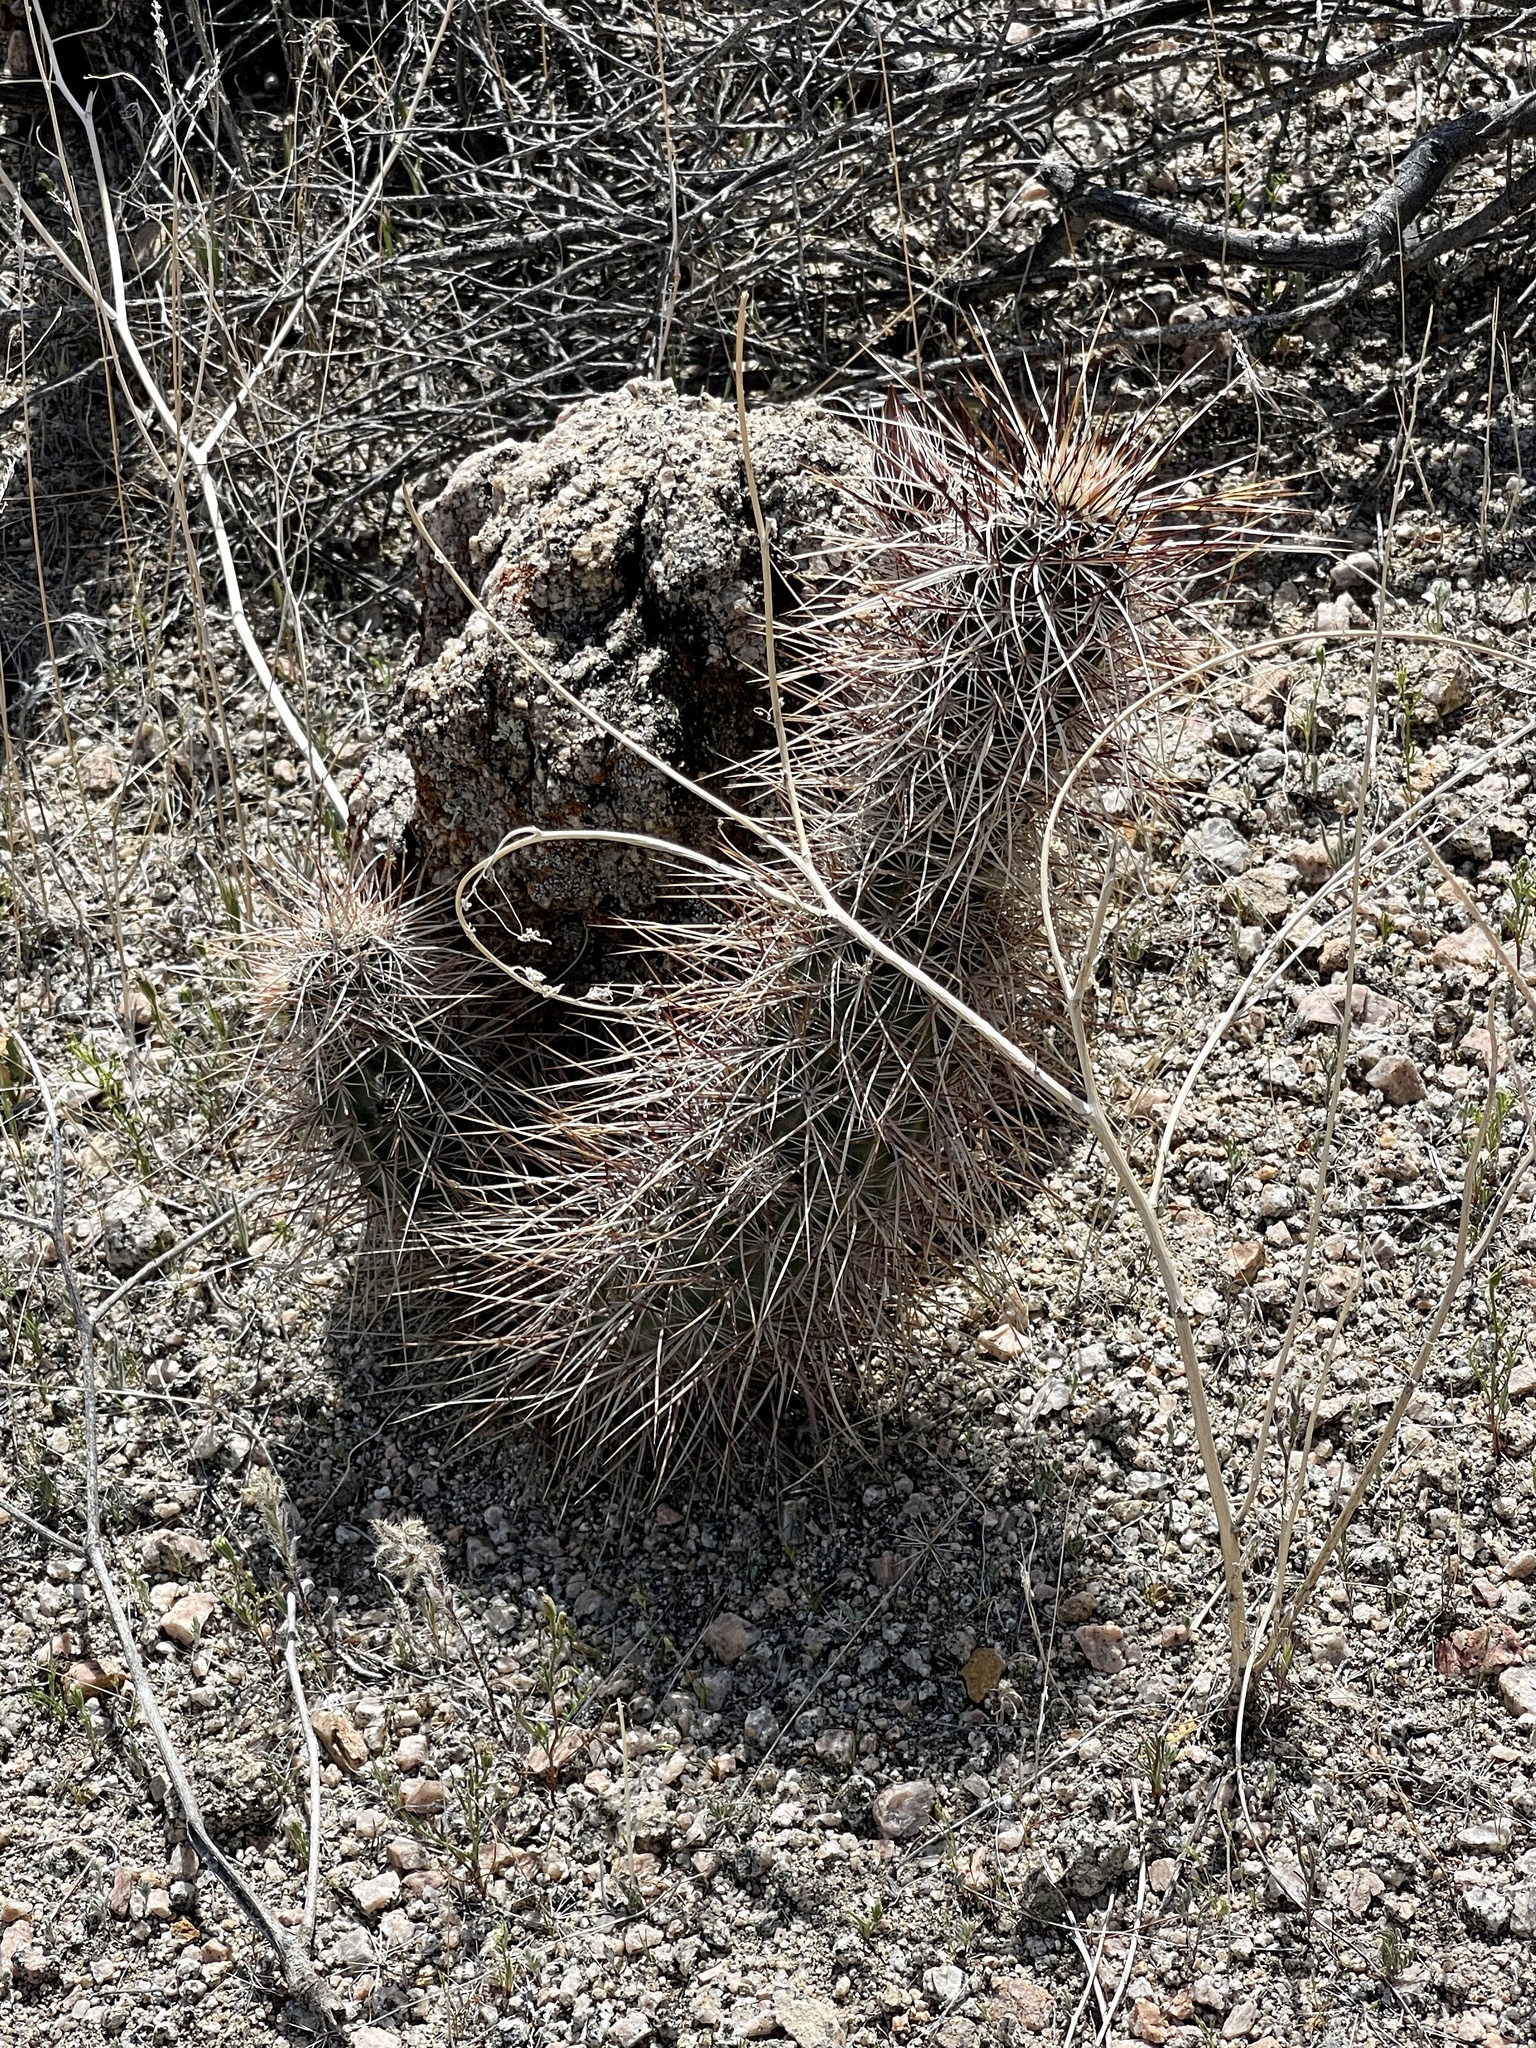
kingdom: Plantae
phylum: Tracheophyta
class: Magnoliopsida
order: Caryophyllales
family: Cactaceae
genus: Echinocereus
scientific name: Echinocereus engelmannii
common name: Engelmann's hedgehog cactus
